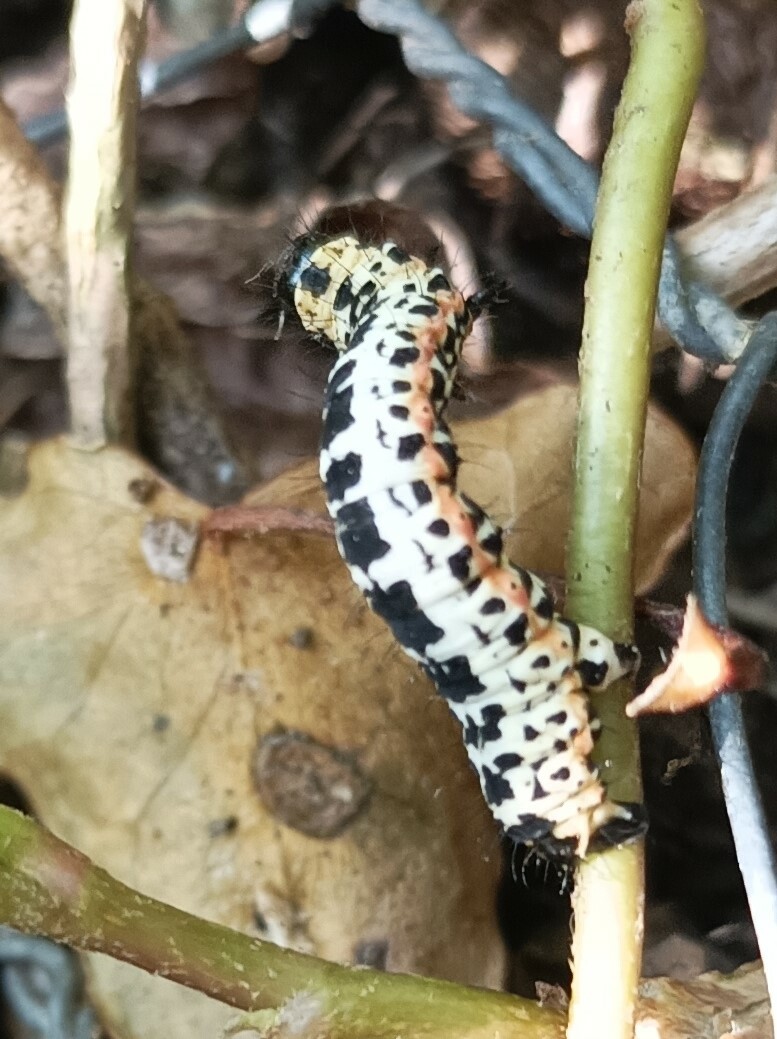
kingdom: Animalia
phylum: Arthropoda
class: Insecta
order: Lepidoptera
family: Geometridae
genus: Abraxas
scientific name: Abraxas grossulariata
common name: Magpie
